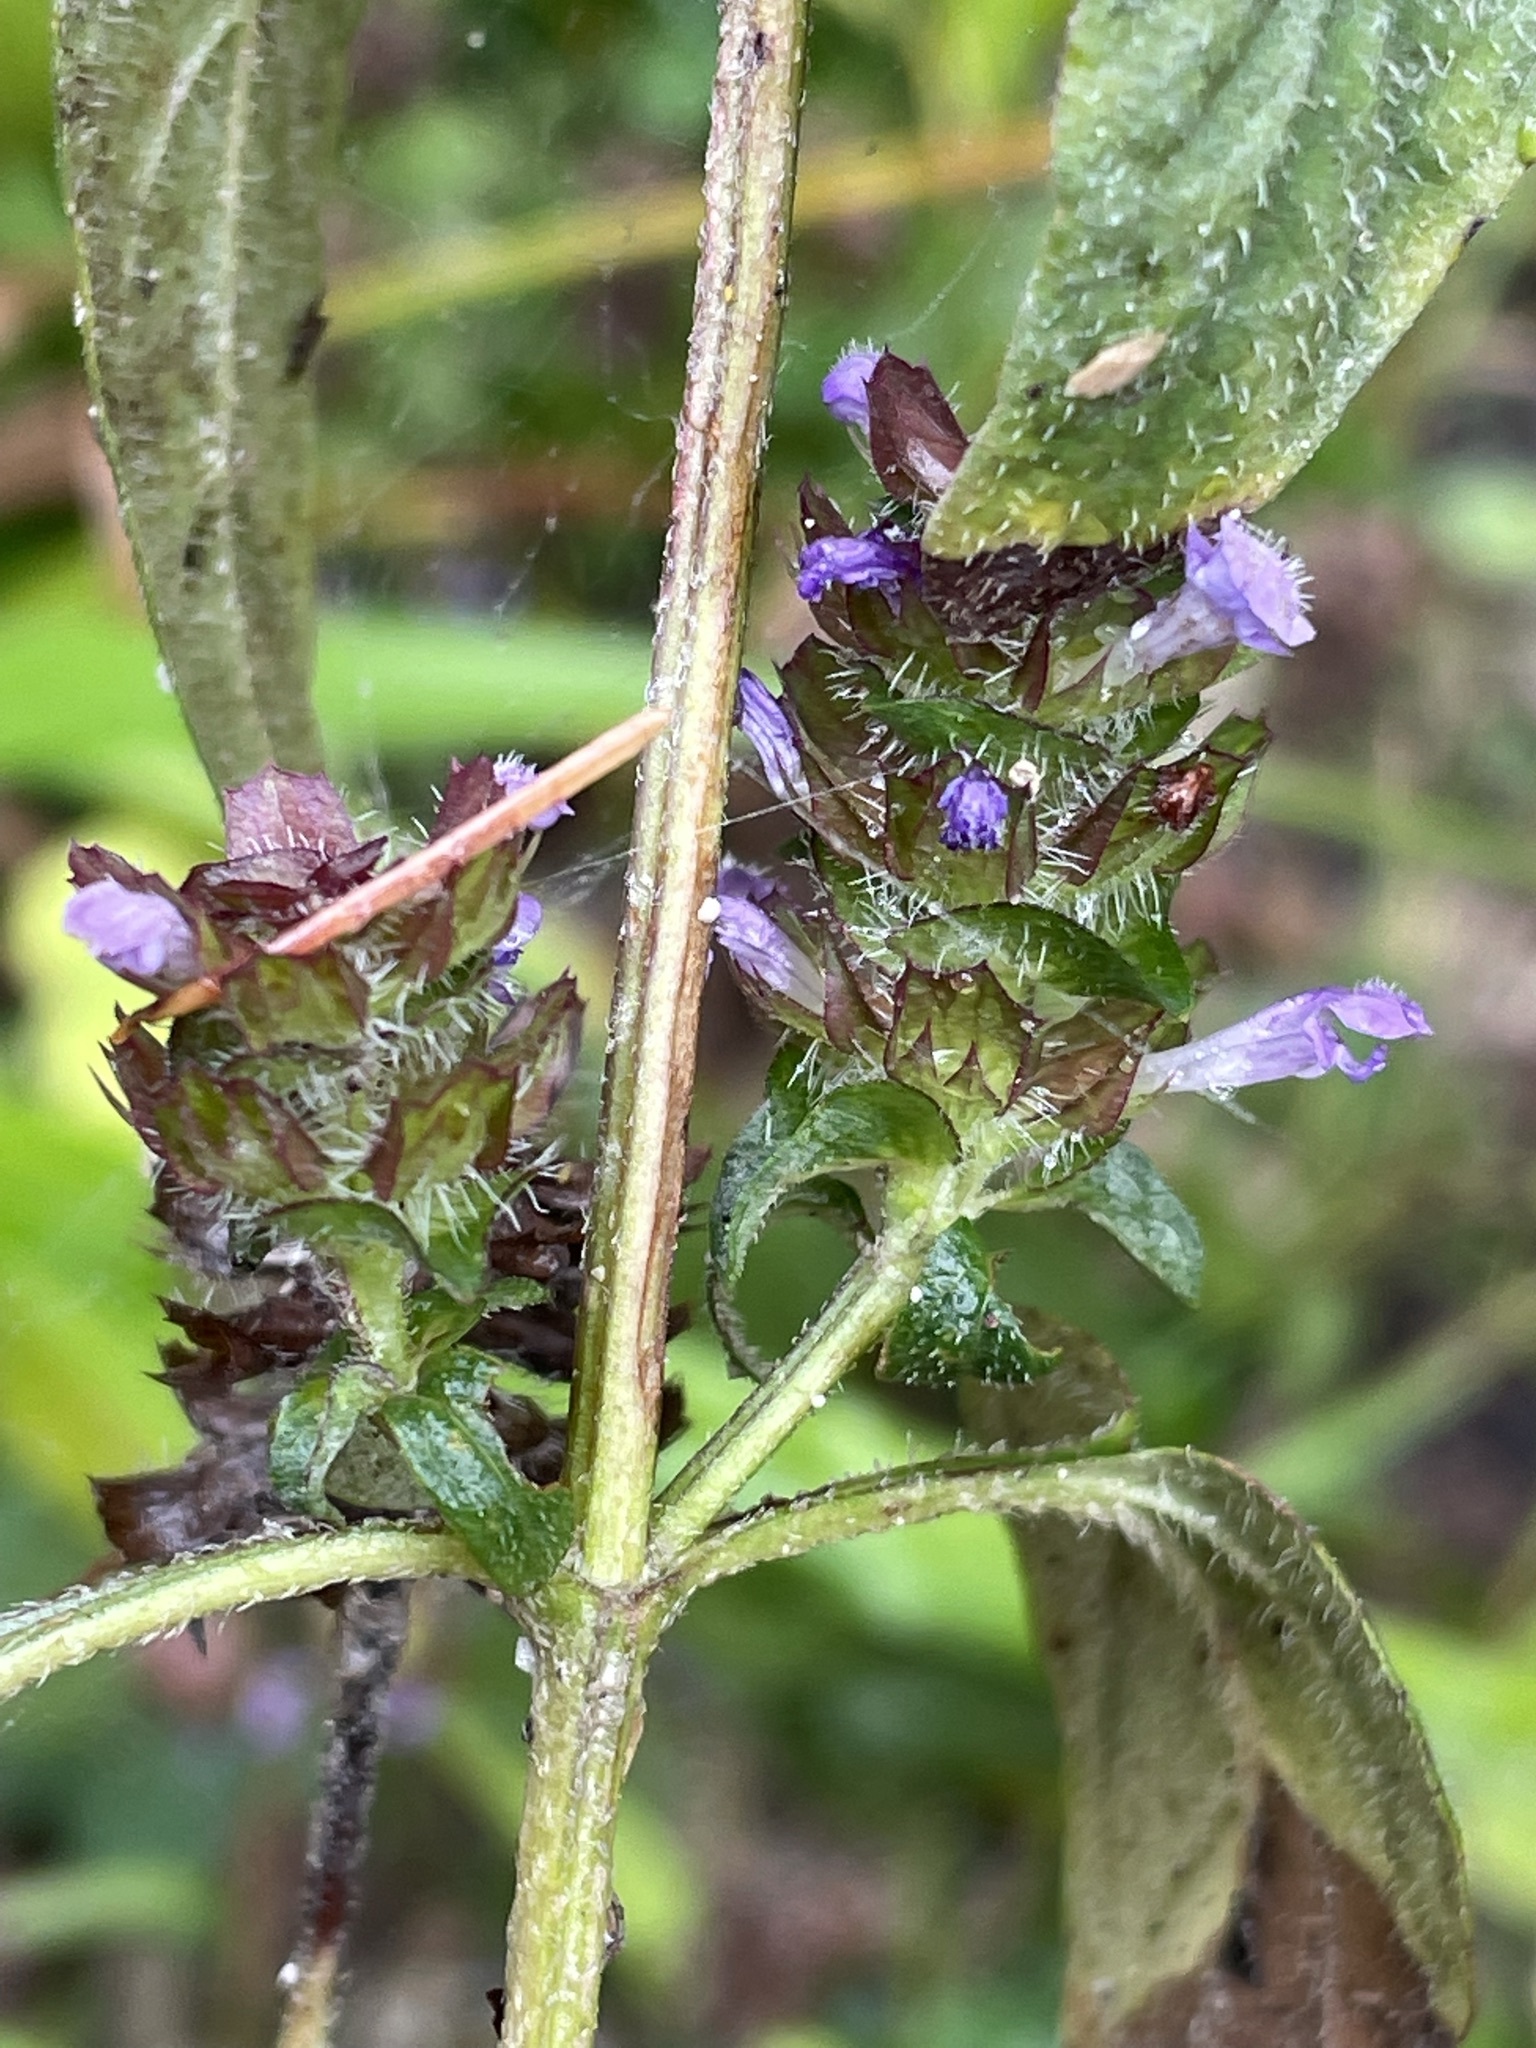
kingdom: Plantae
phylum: Tracheophyta
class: Magnoliopsida
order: Lamiales
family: Lamiaceae
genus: Prunella
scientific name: Prunella vulgaris
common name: Heal-all
